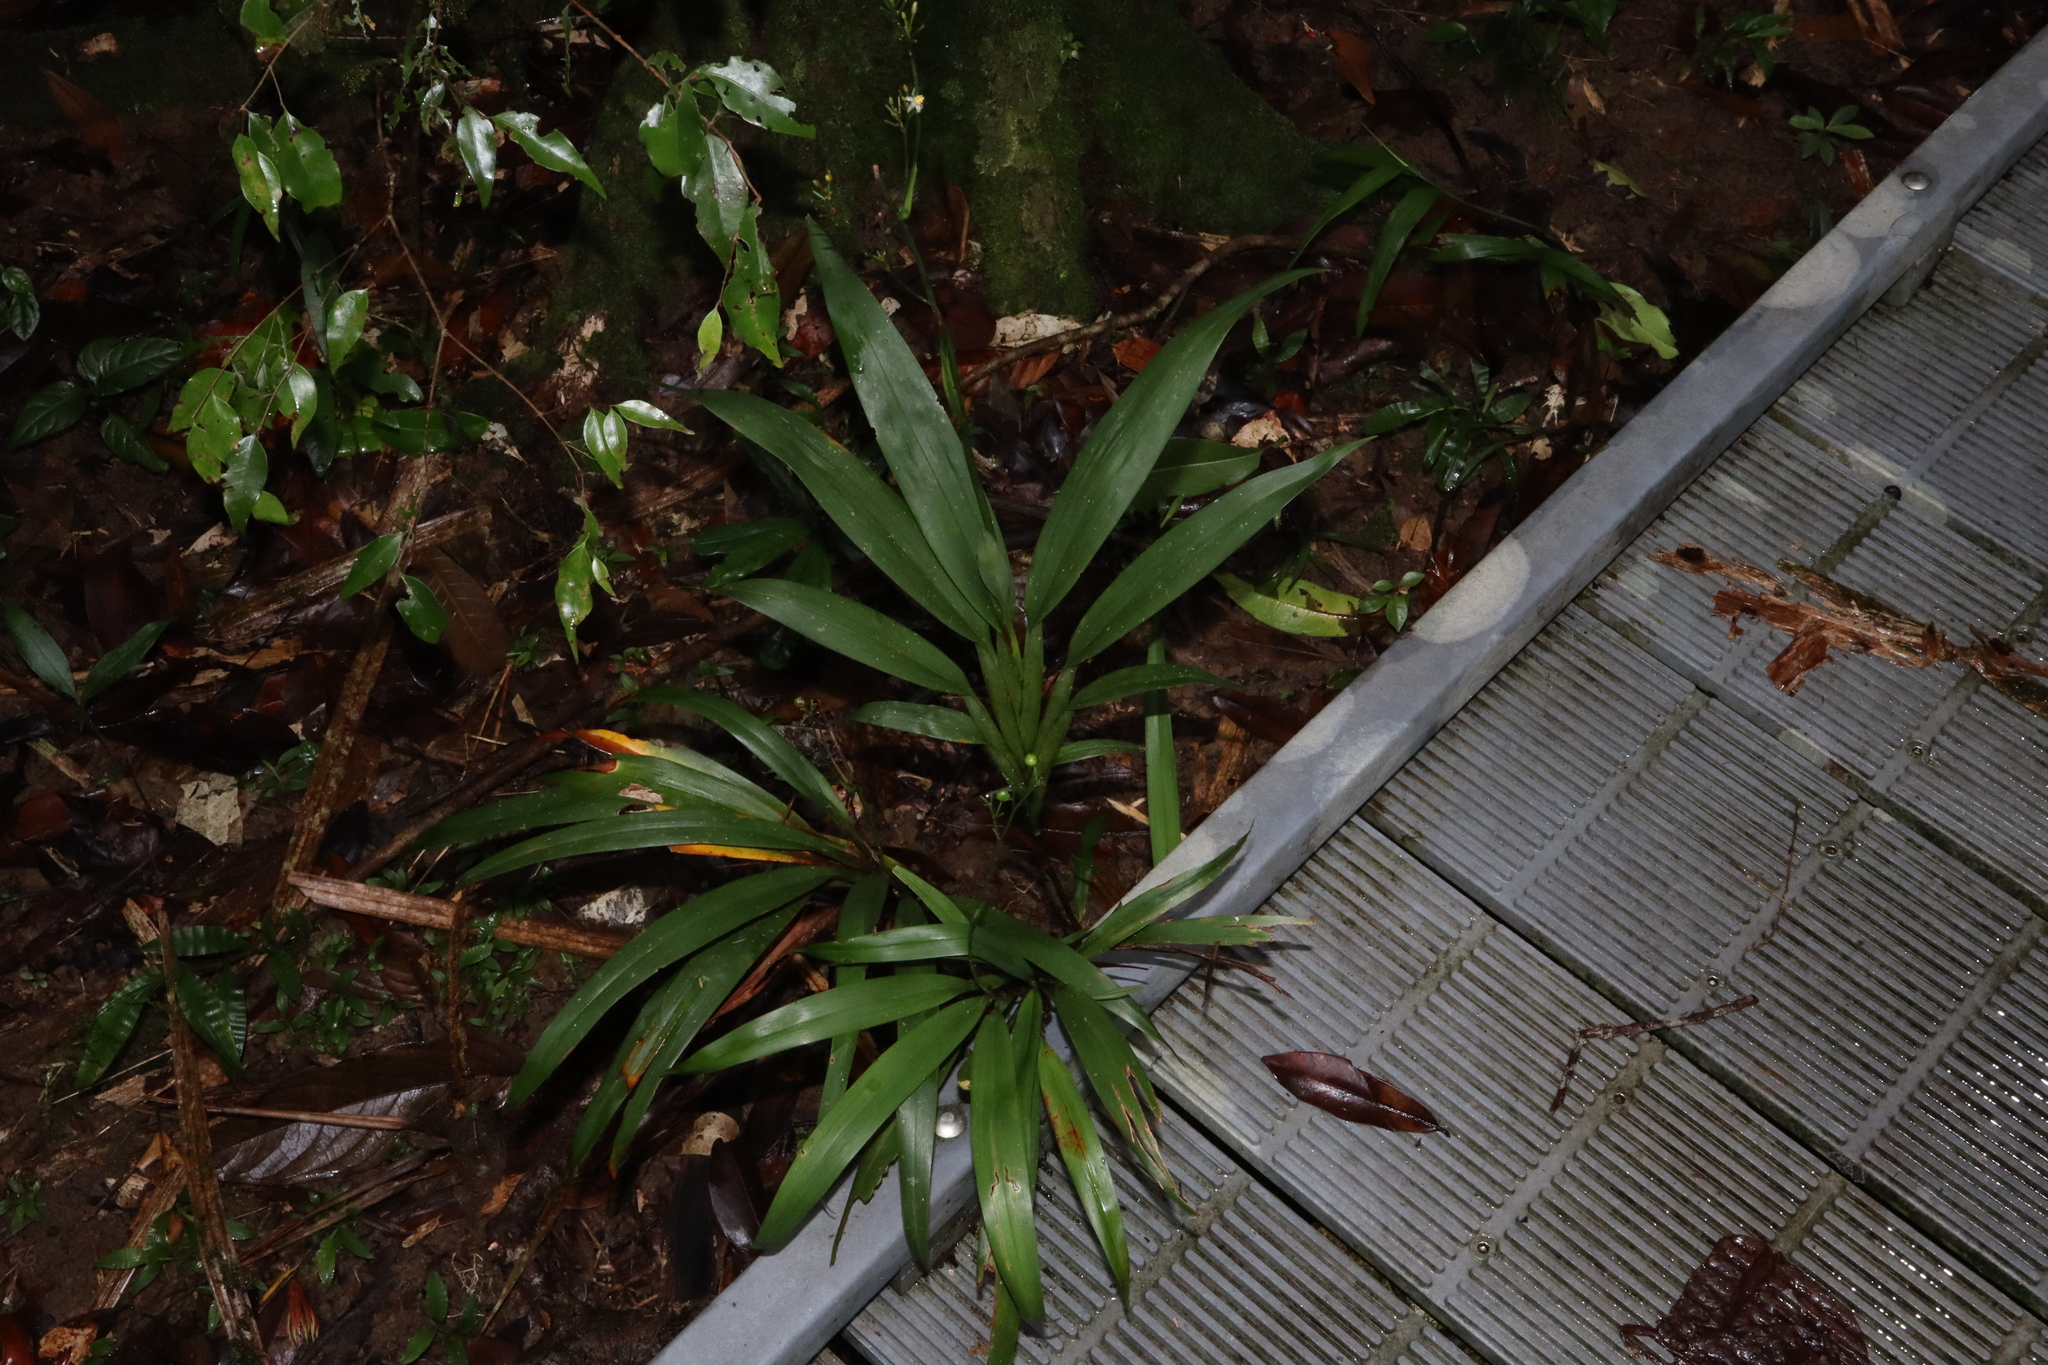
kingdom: Plantae
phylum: Tracheophyta
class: Liliopsida
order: Asparagales
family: Asphodelaceae
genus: Dianella
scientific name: Dianella bambusifolia
